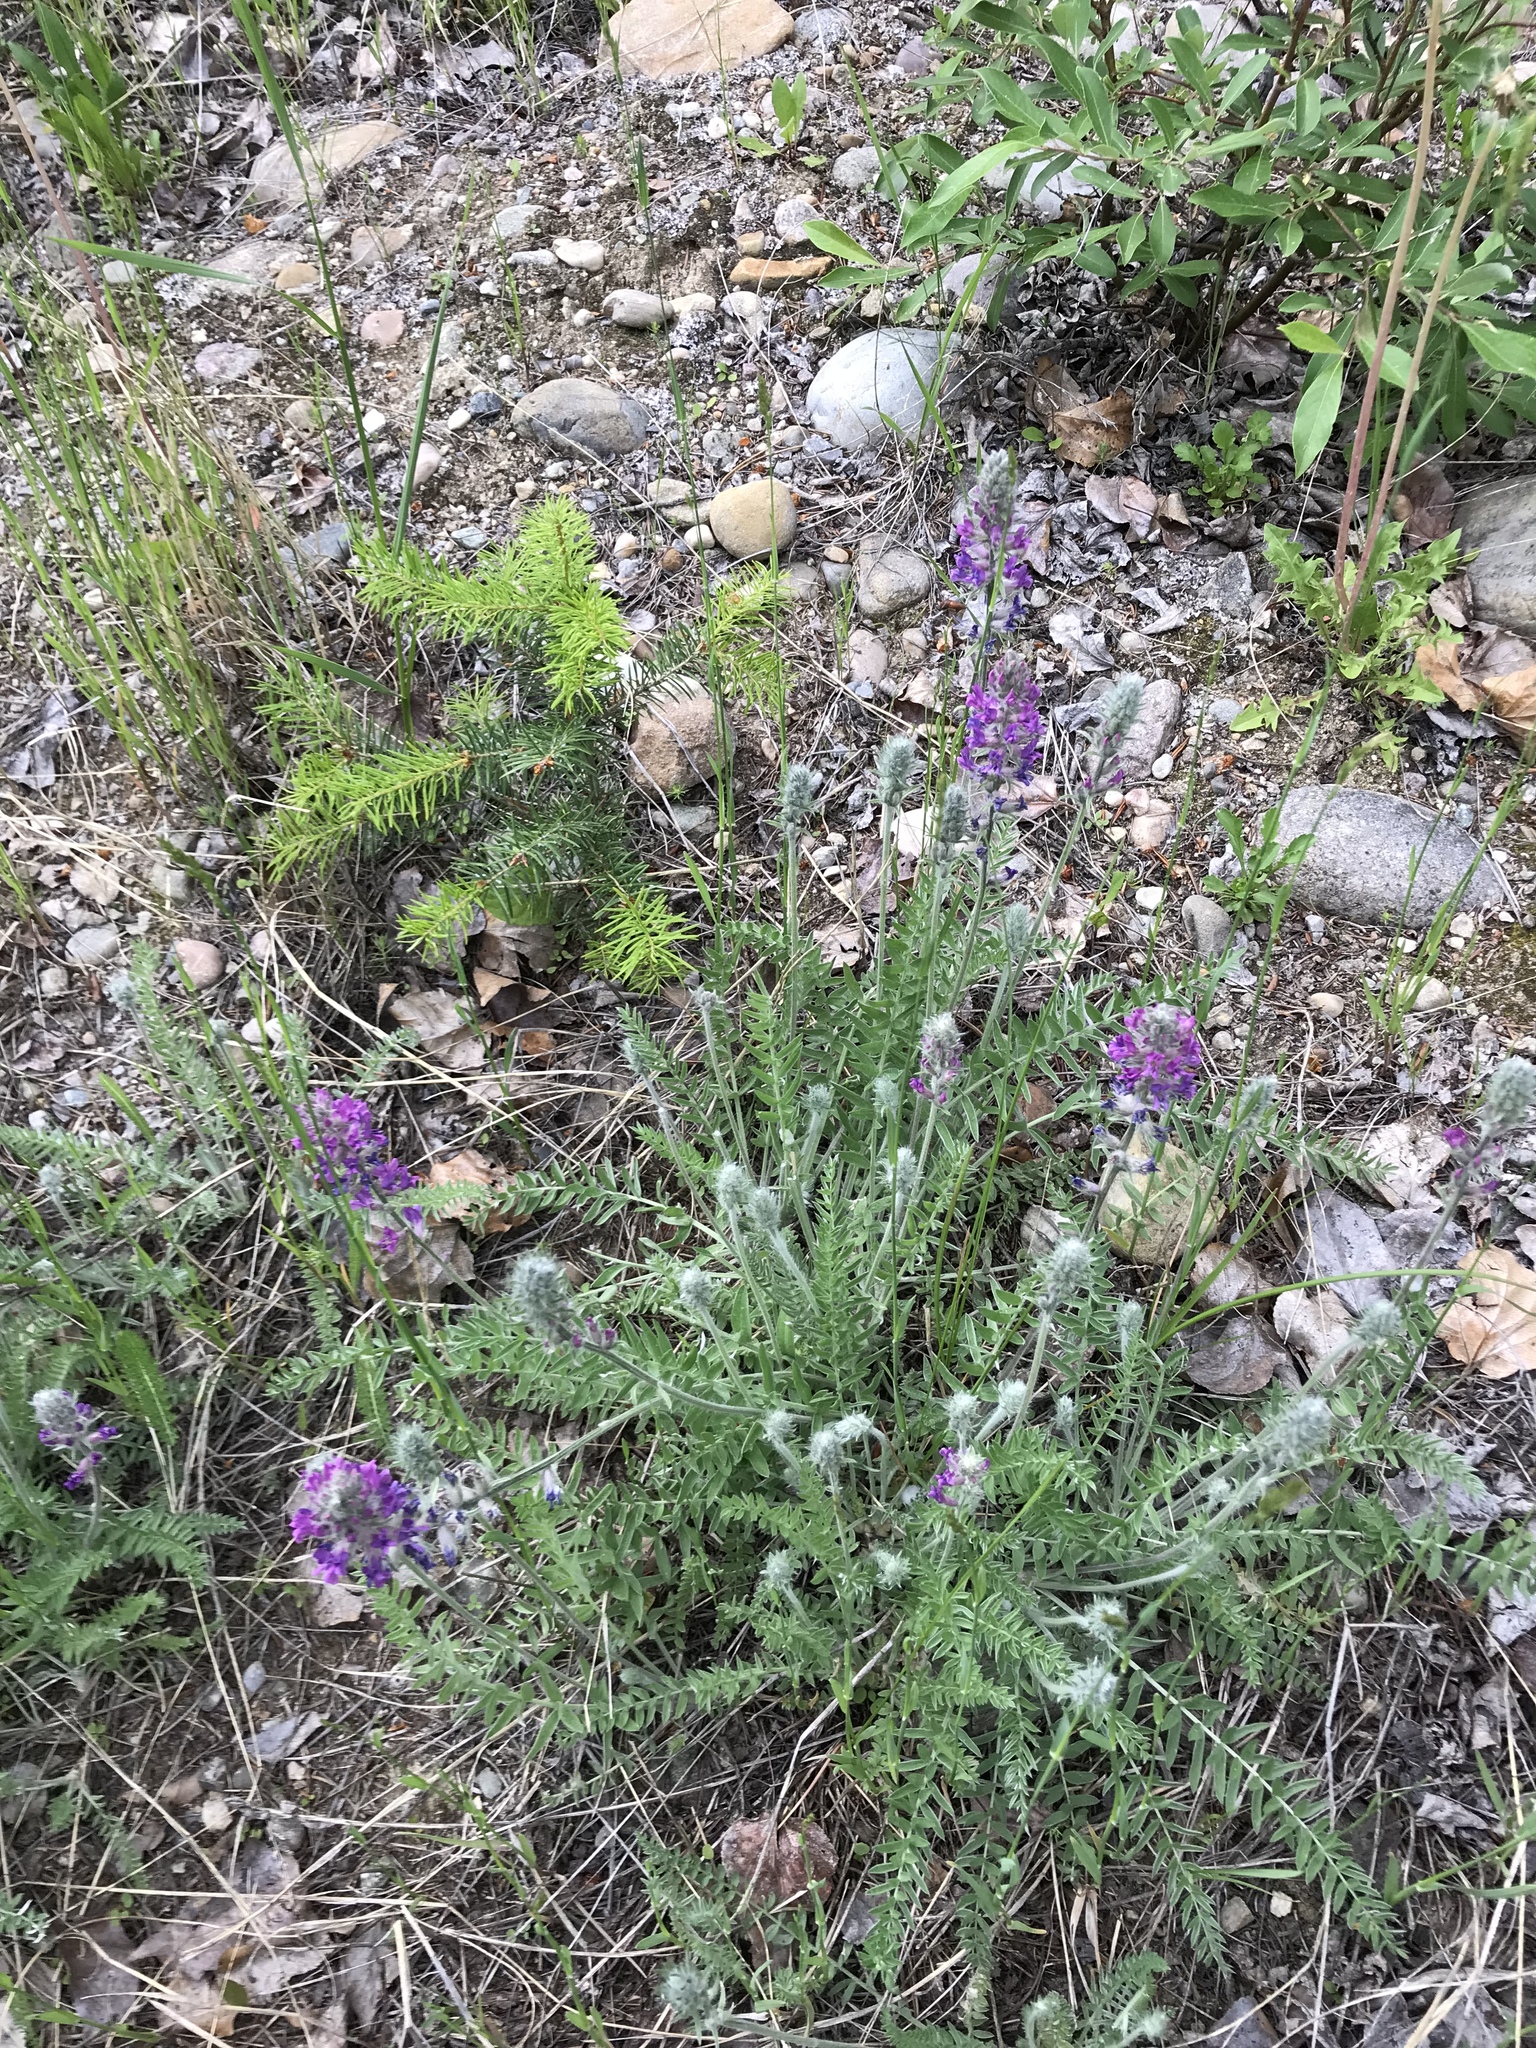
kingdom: Plantae
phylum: Tracheophyta
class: Magnoliopsida
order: Fabales
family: Fabaceae
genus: Oxytropis
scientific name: Oxytropis splendens
